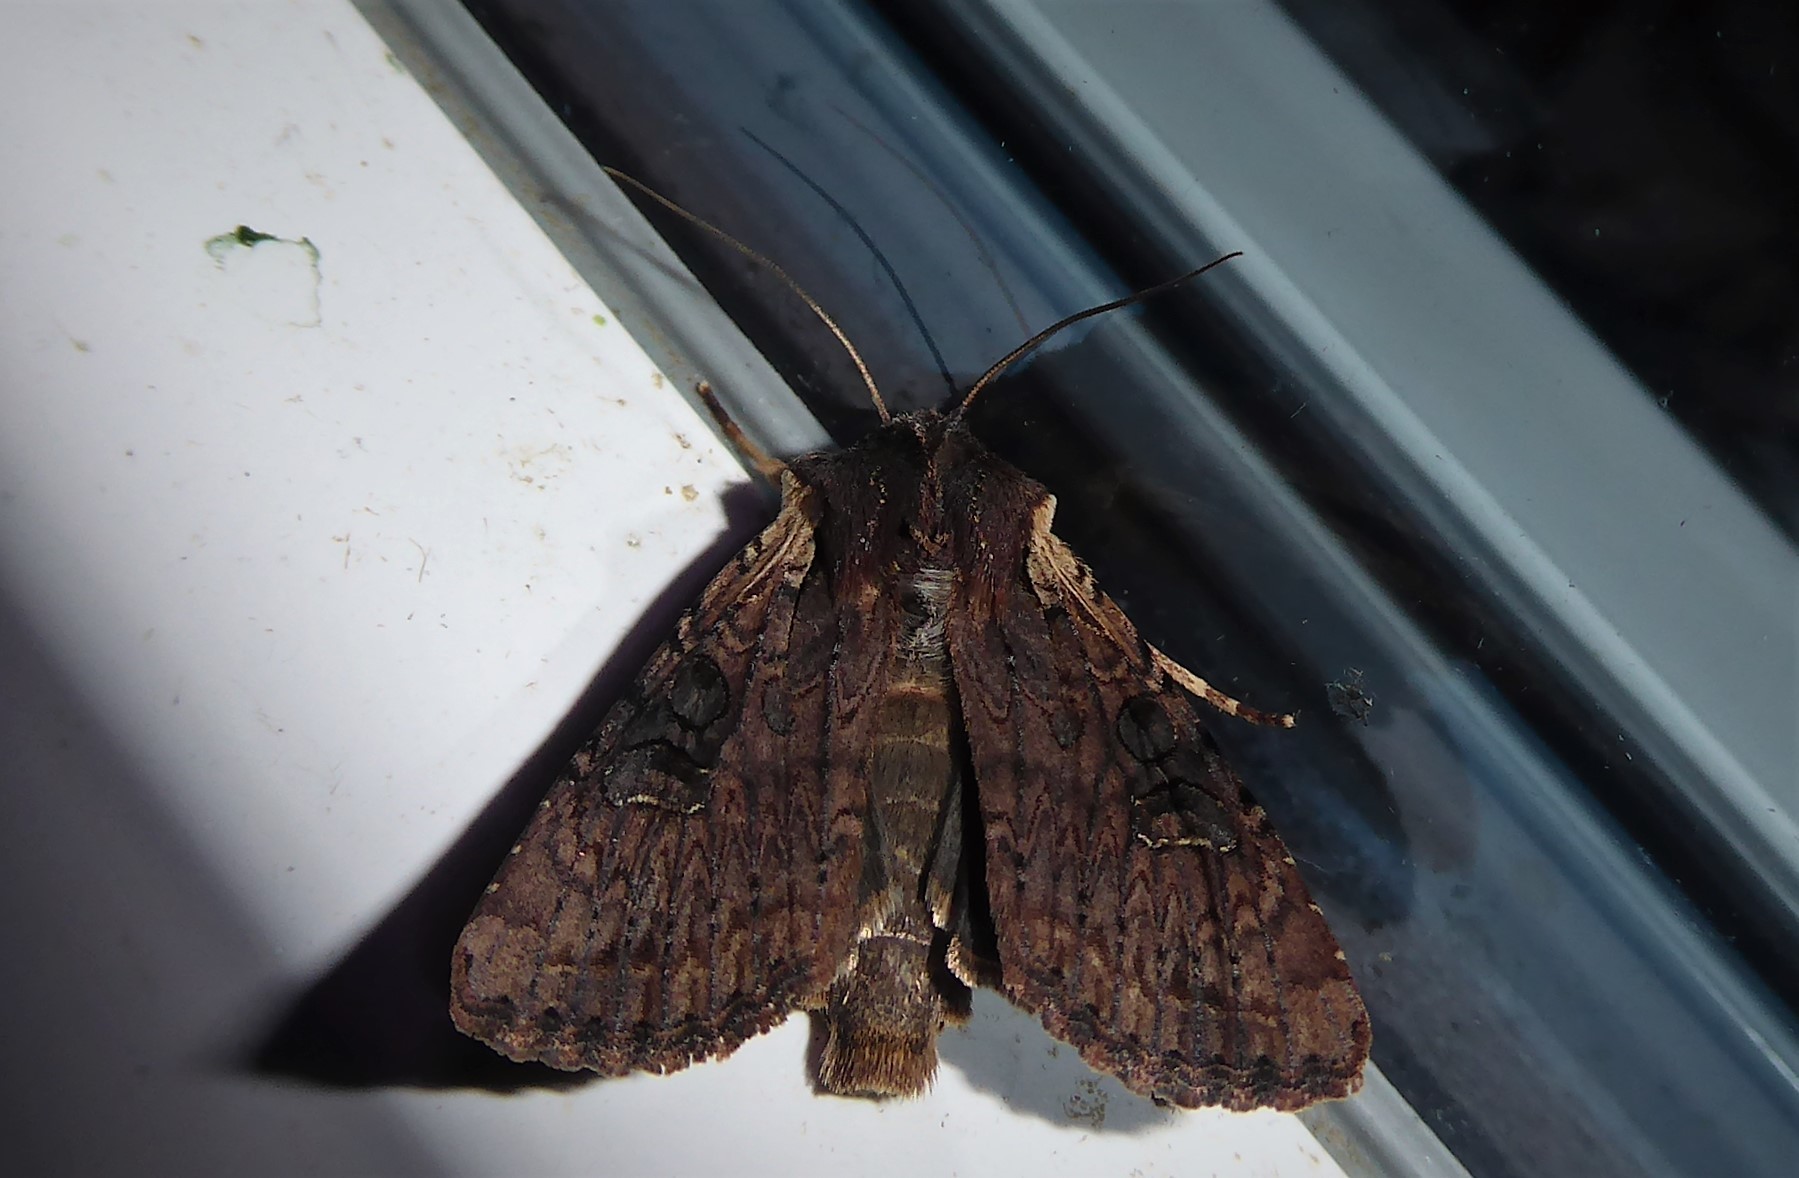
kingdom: Animalia
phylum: Arthropoda
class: Insecta
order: Lepidoptera
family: Noctuidae
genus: Ichneutica
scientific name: Ichneutica omoplaca
